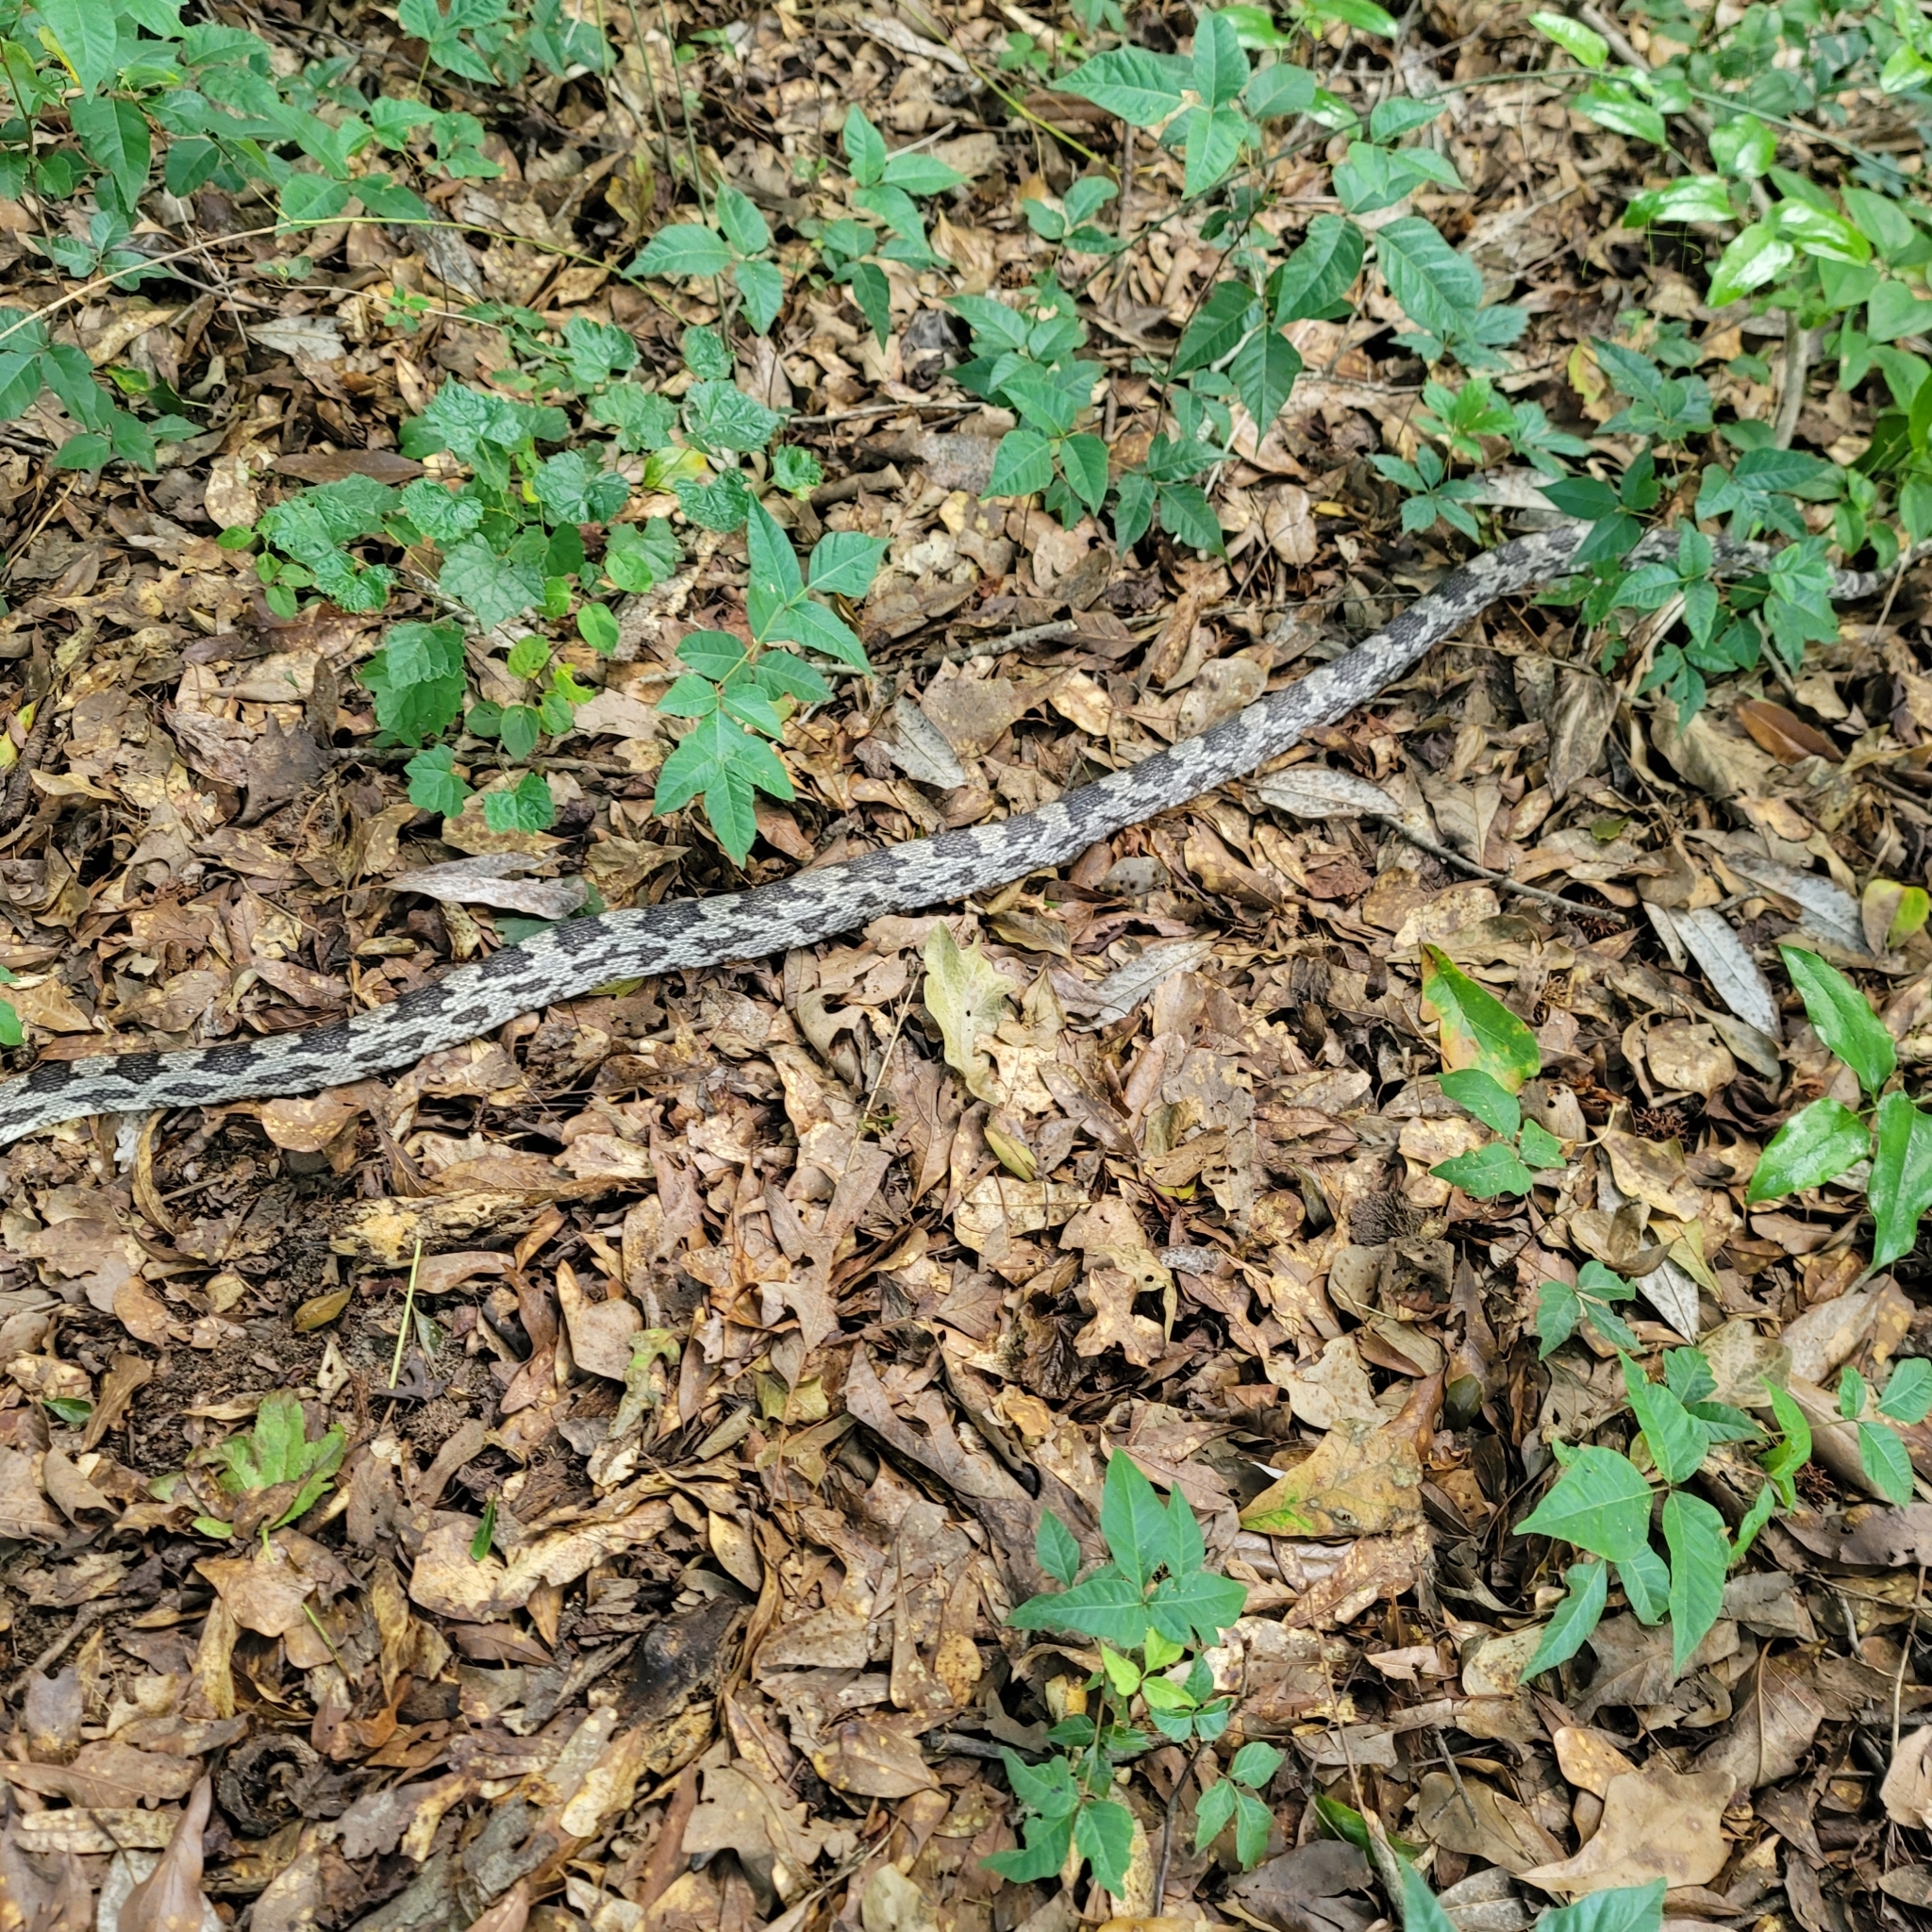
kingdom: Animalia
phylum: Chordata
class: Squamata
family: Colubridae
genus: Pantherophis
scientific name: Pantherophis spiloides
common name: Gray rat snake
